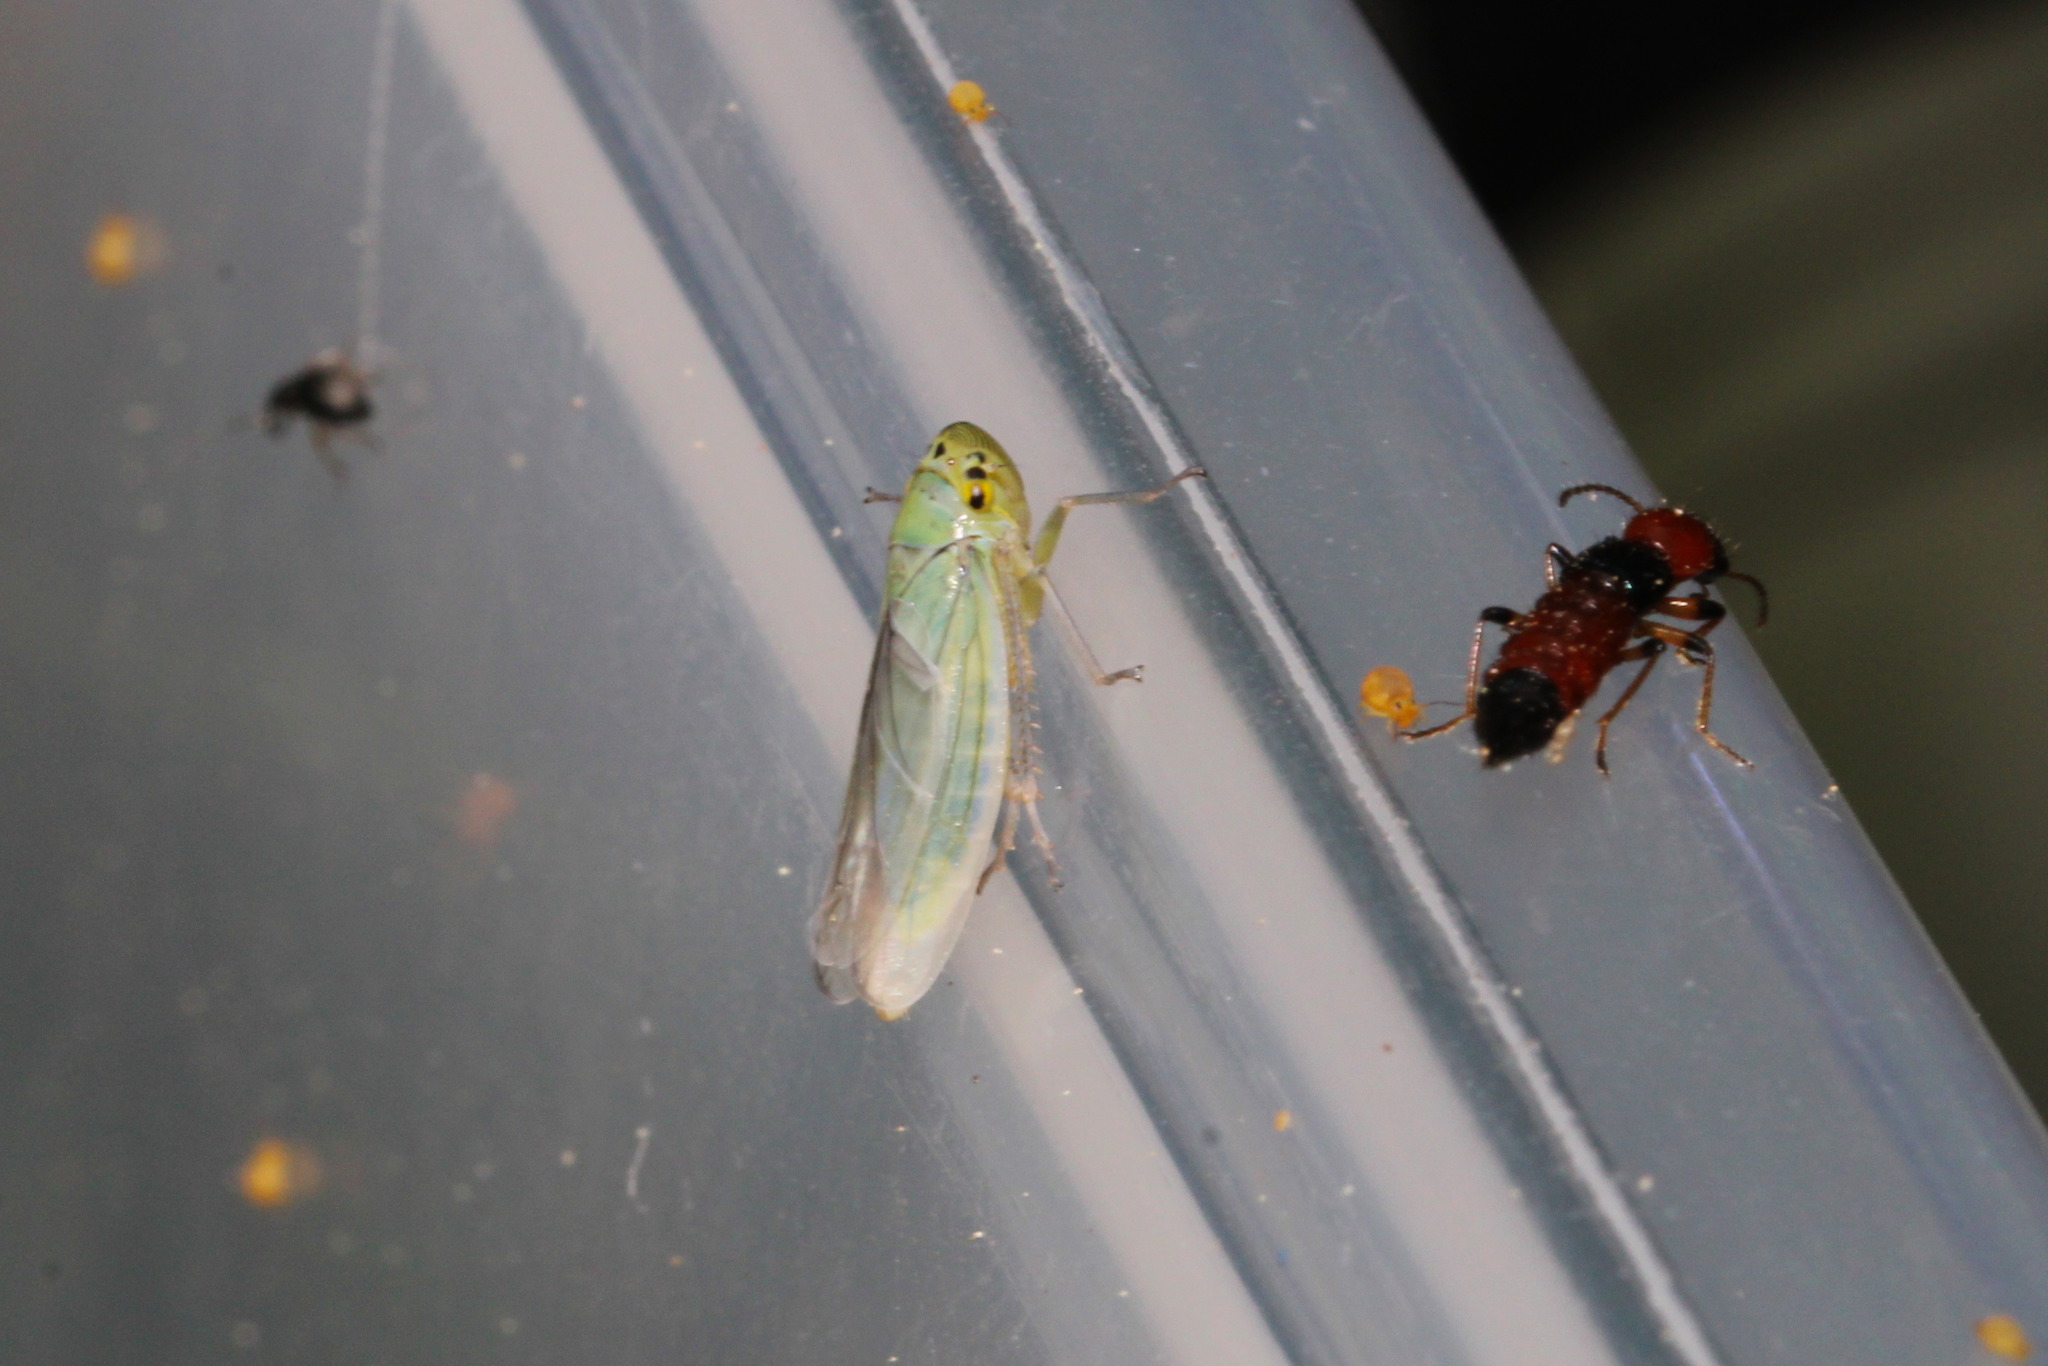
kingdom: Animalia
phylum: Arthropoda
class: Insecta
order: Hemiptera
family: Cicadellidae
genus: Cicadella
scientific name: Cicadella viridis
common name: Leafhopper
